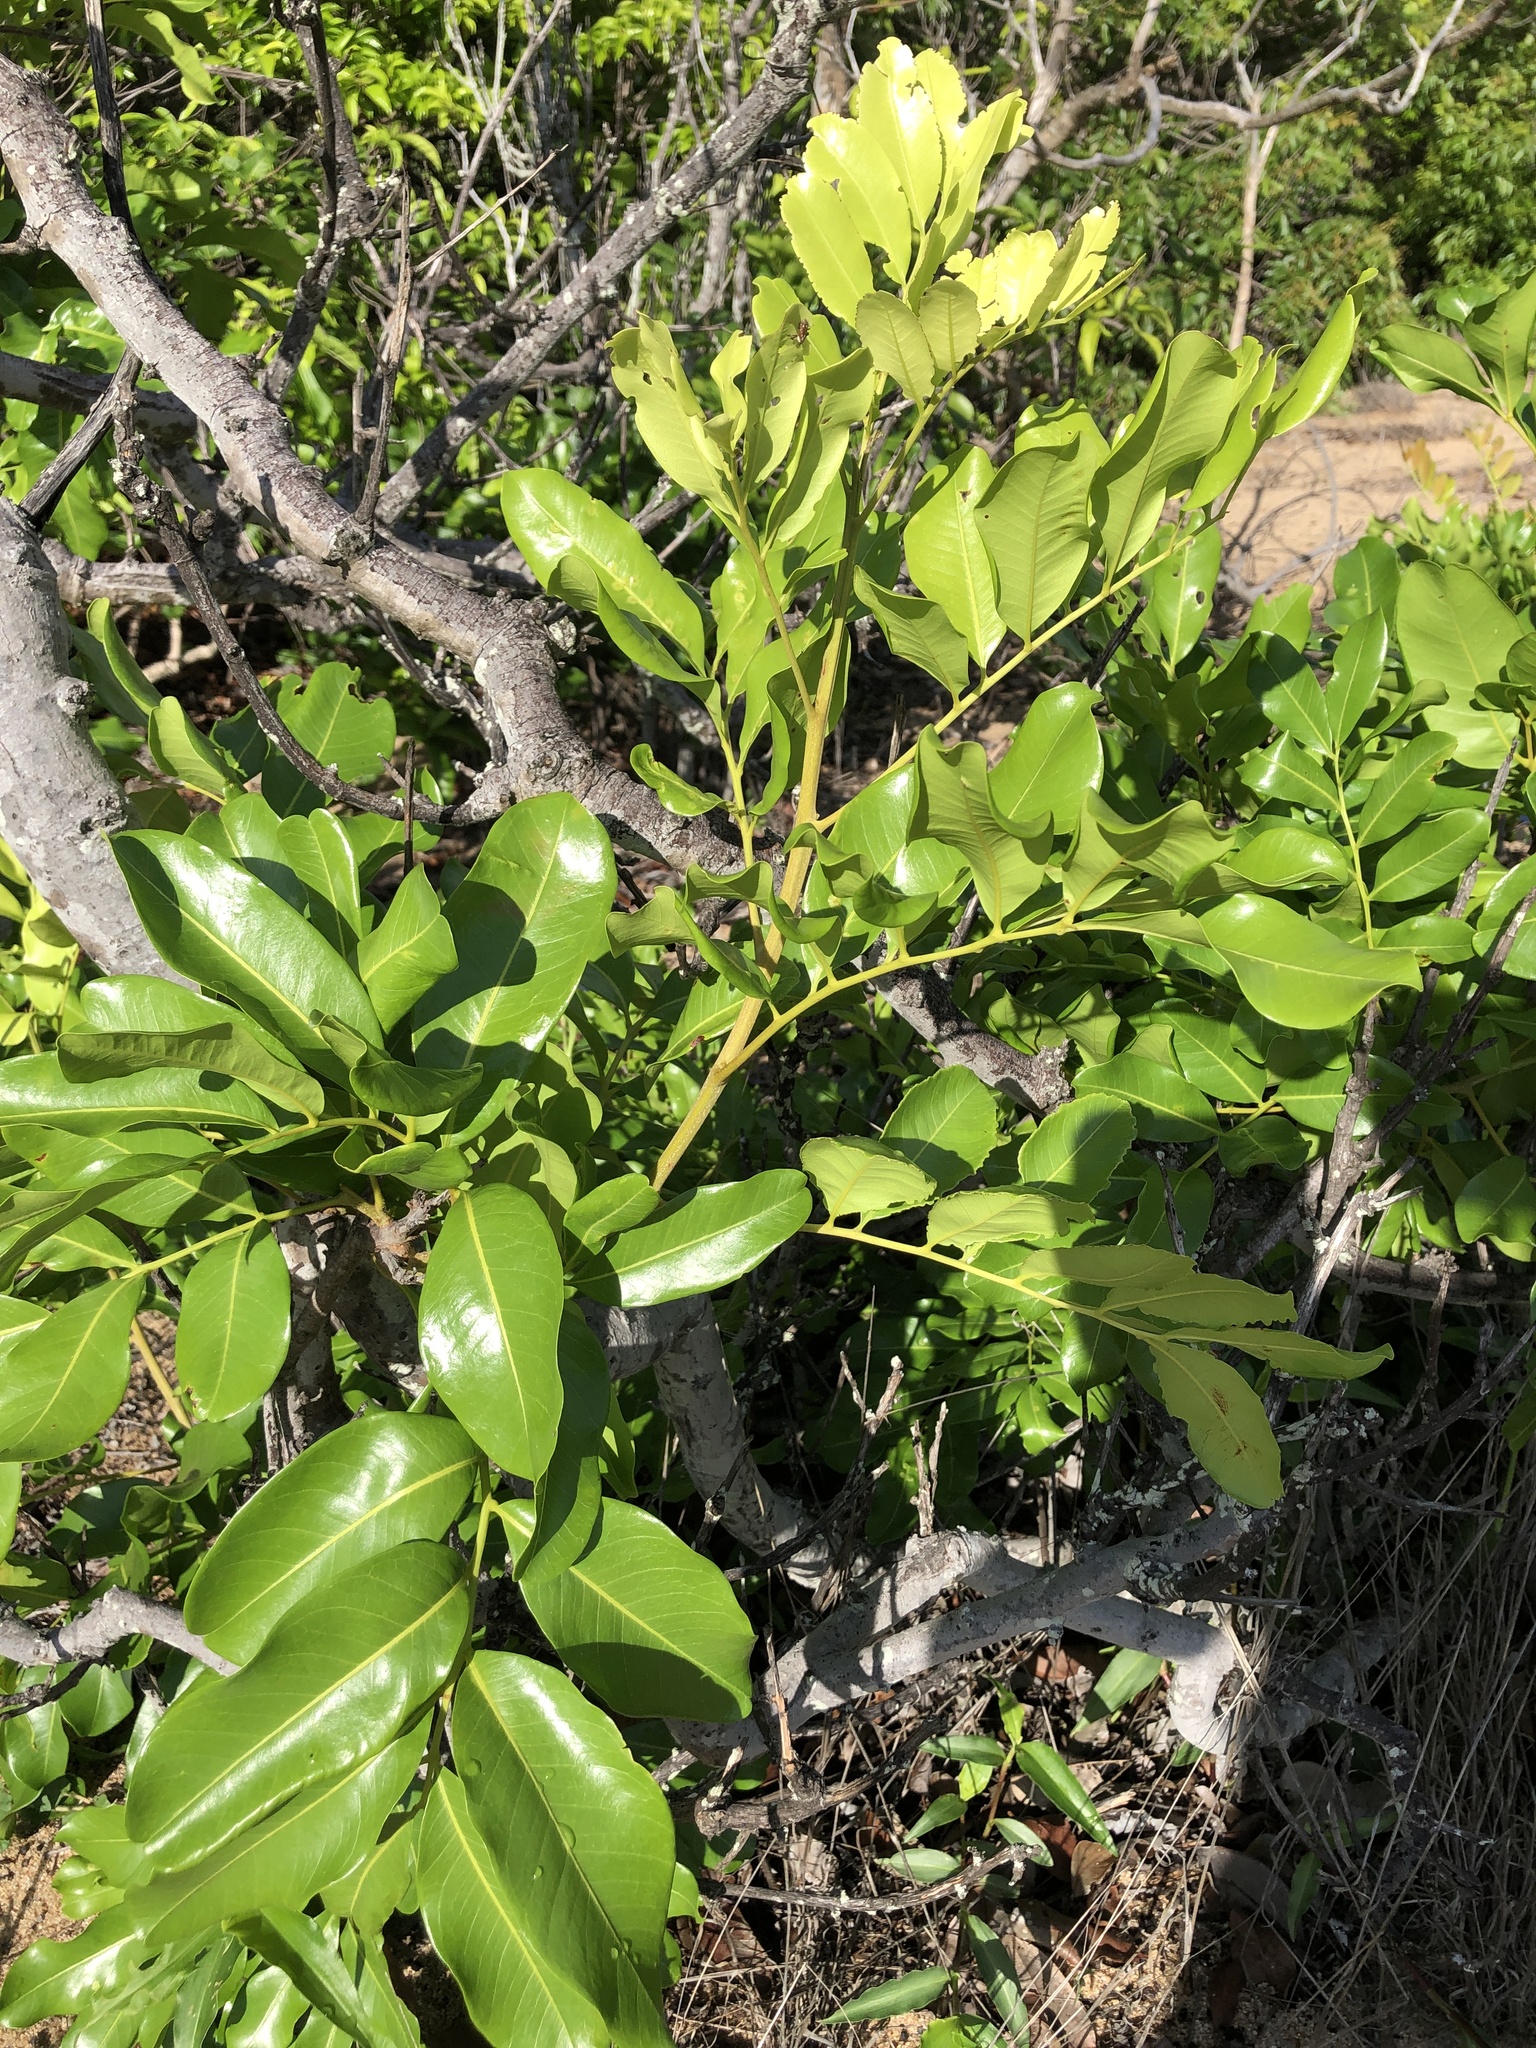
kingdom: Plantae
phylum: Tracheophyta
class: Magnoliopsida
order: Sapindales
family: Sapindaceae
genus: Cupaniopsis
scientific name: Cupaniopsis anacardioides
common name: Carrotwood
